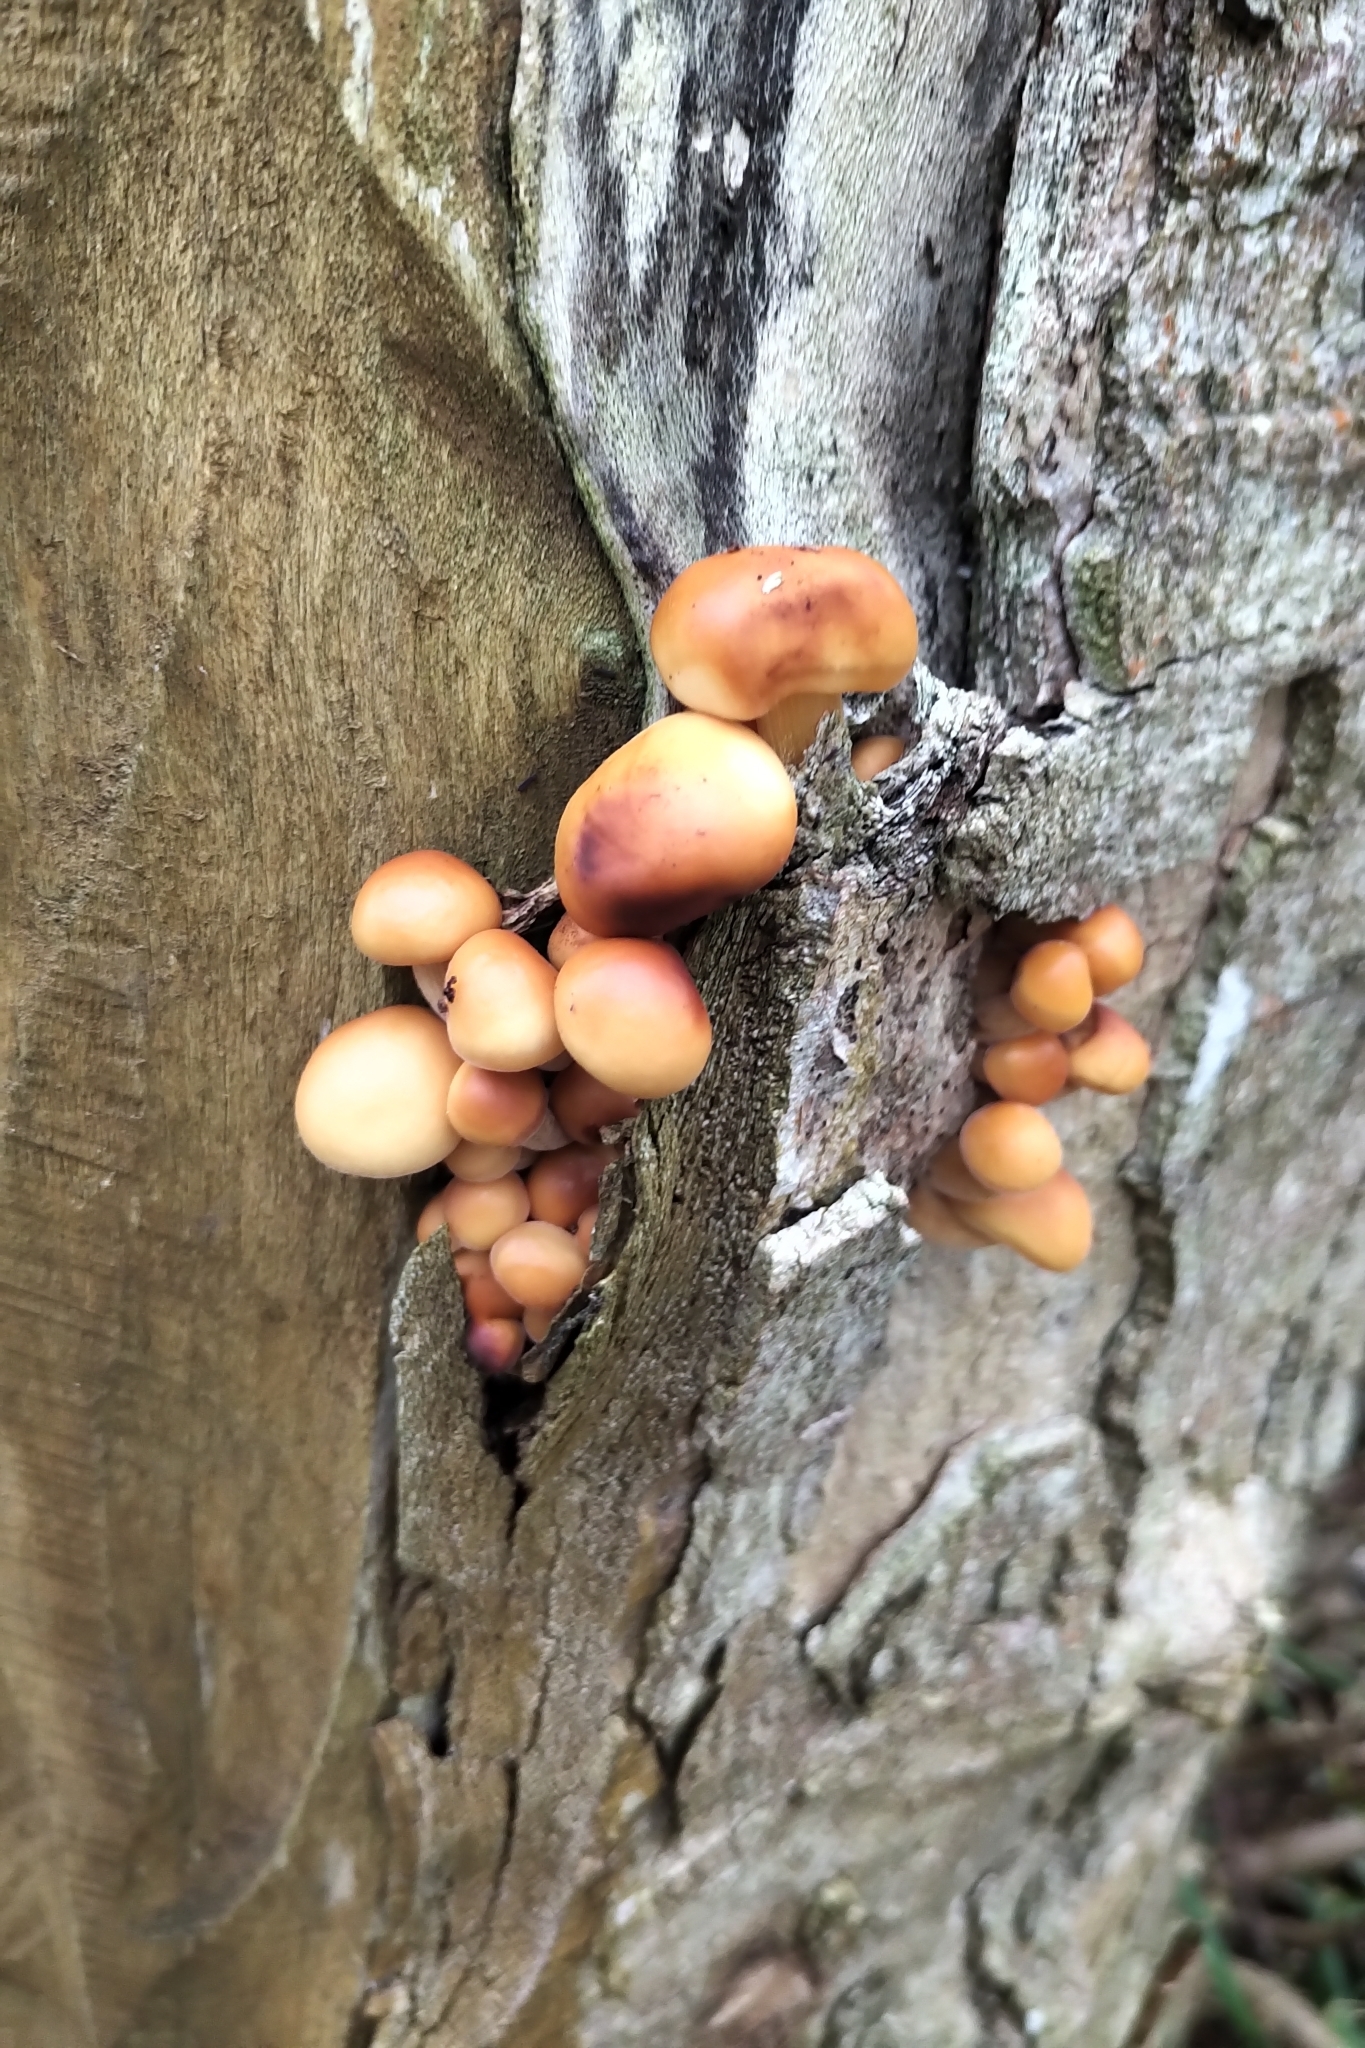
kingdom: Fungi
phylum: Basidiomycota
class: Agaricomycetes
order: Agaricales
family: Physalacriaceae
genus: Flammulina
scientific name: Flammulina
